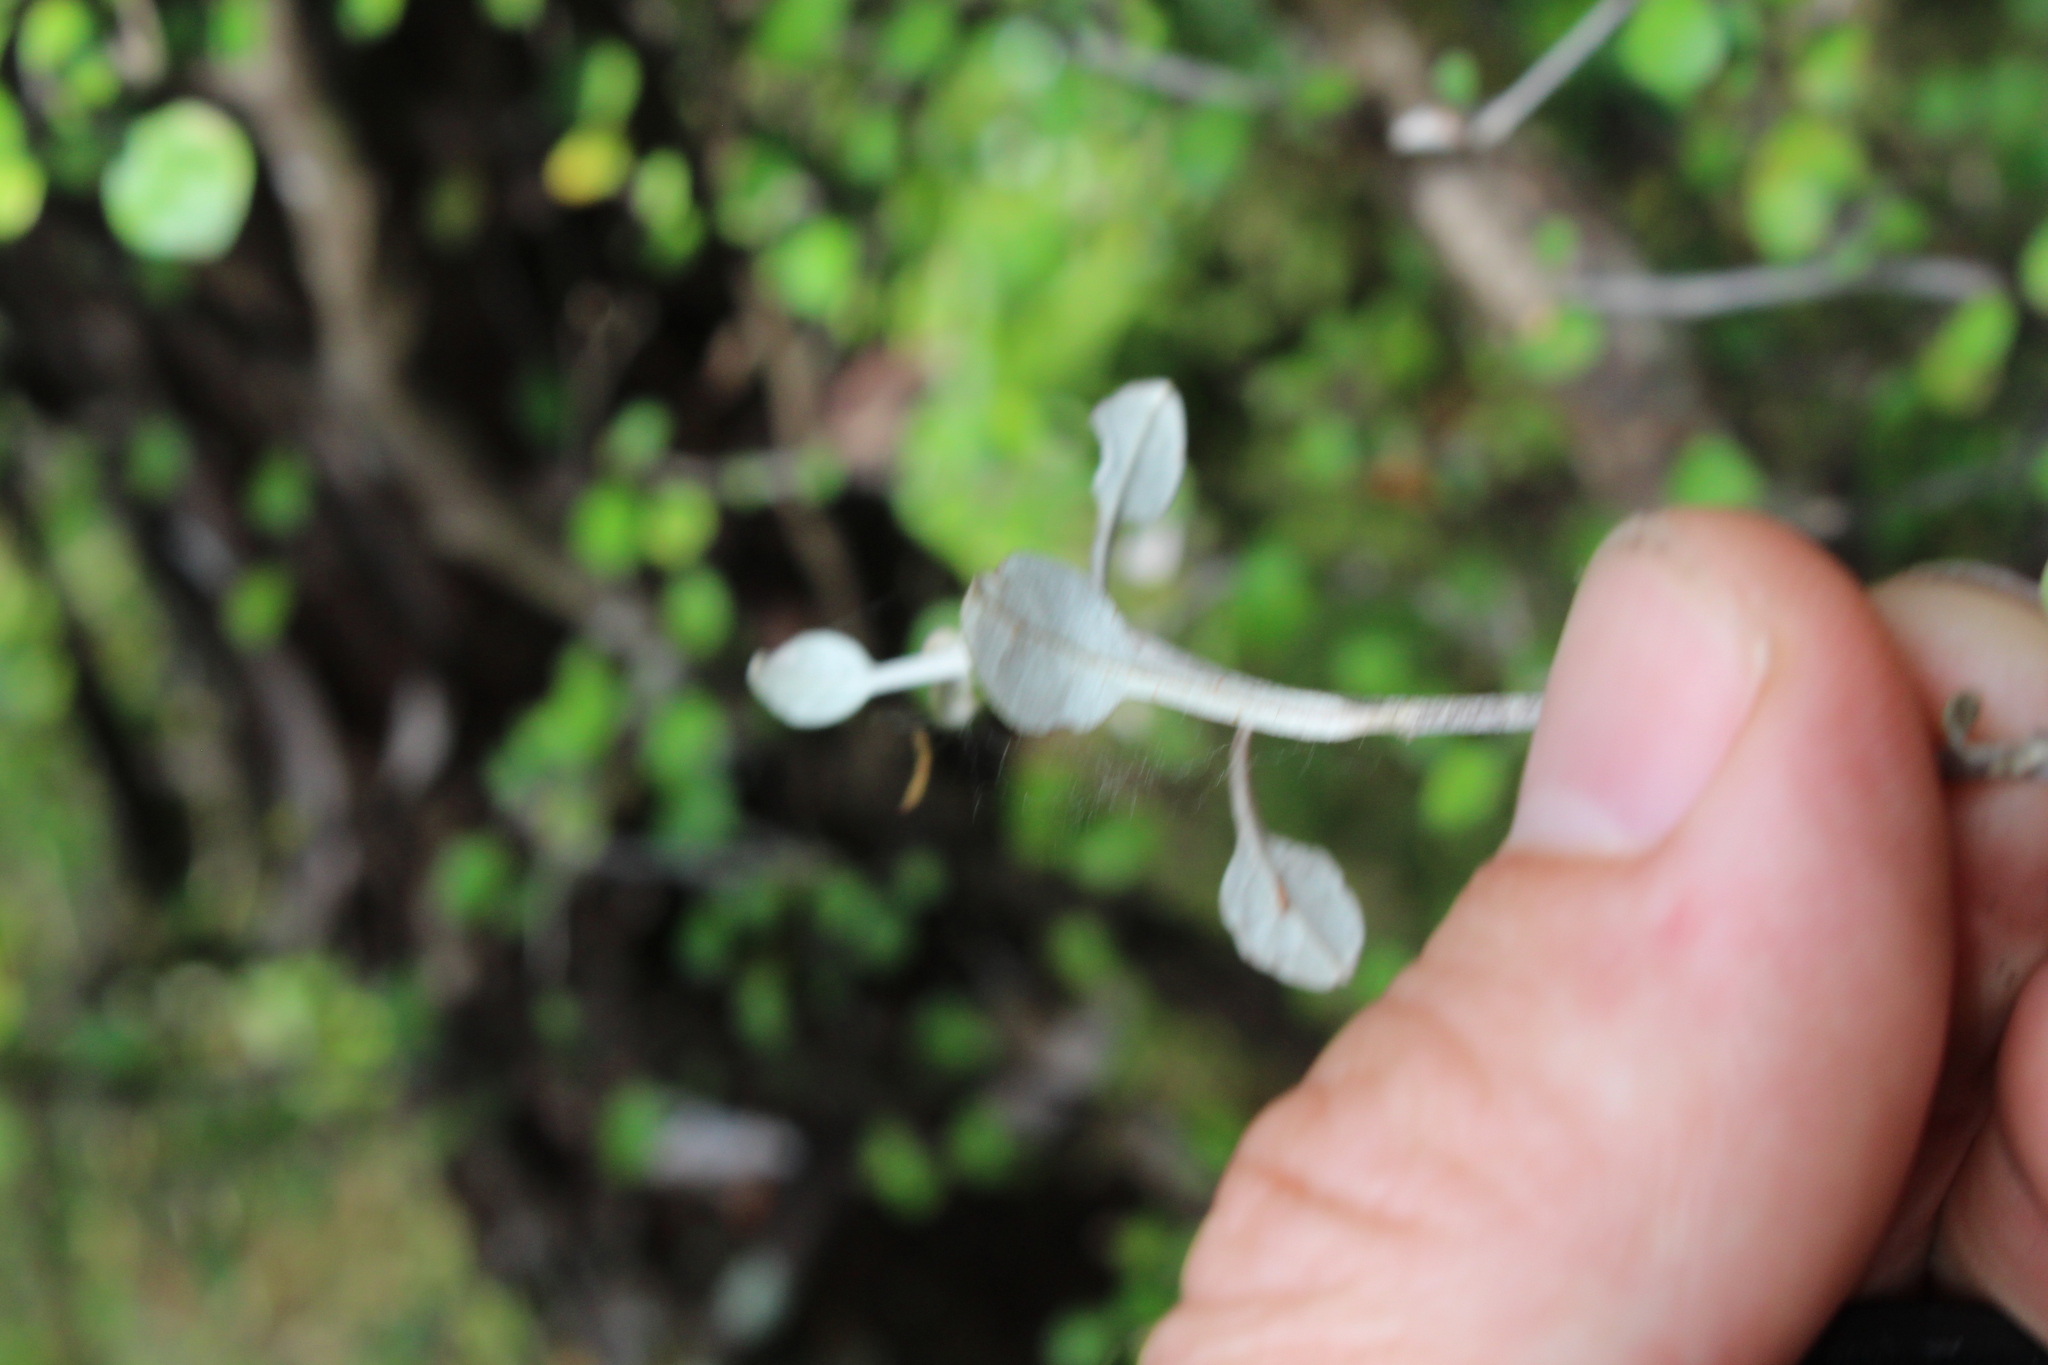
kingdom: Plantae
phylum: Tracheophyta
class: Magnoliopsida
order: Asterales
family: Argophyllaceae
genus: Corokia
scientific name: Corokia cotoneaster
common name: Wire nettingbush
